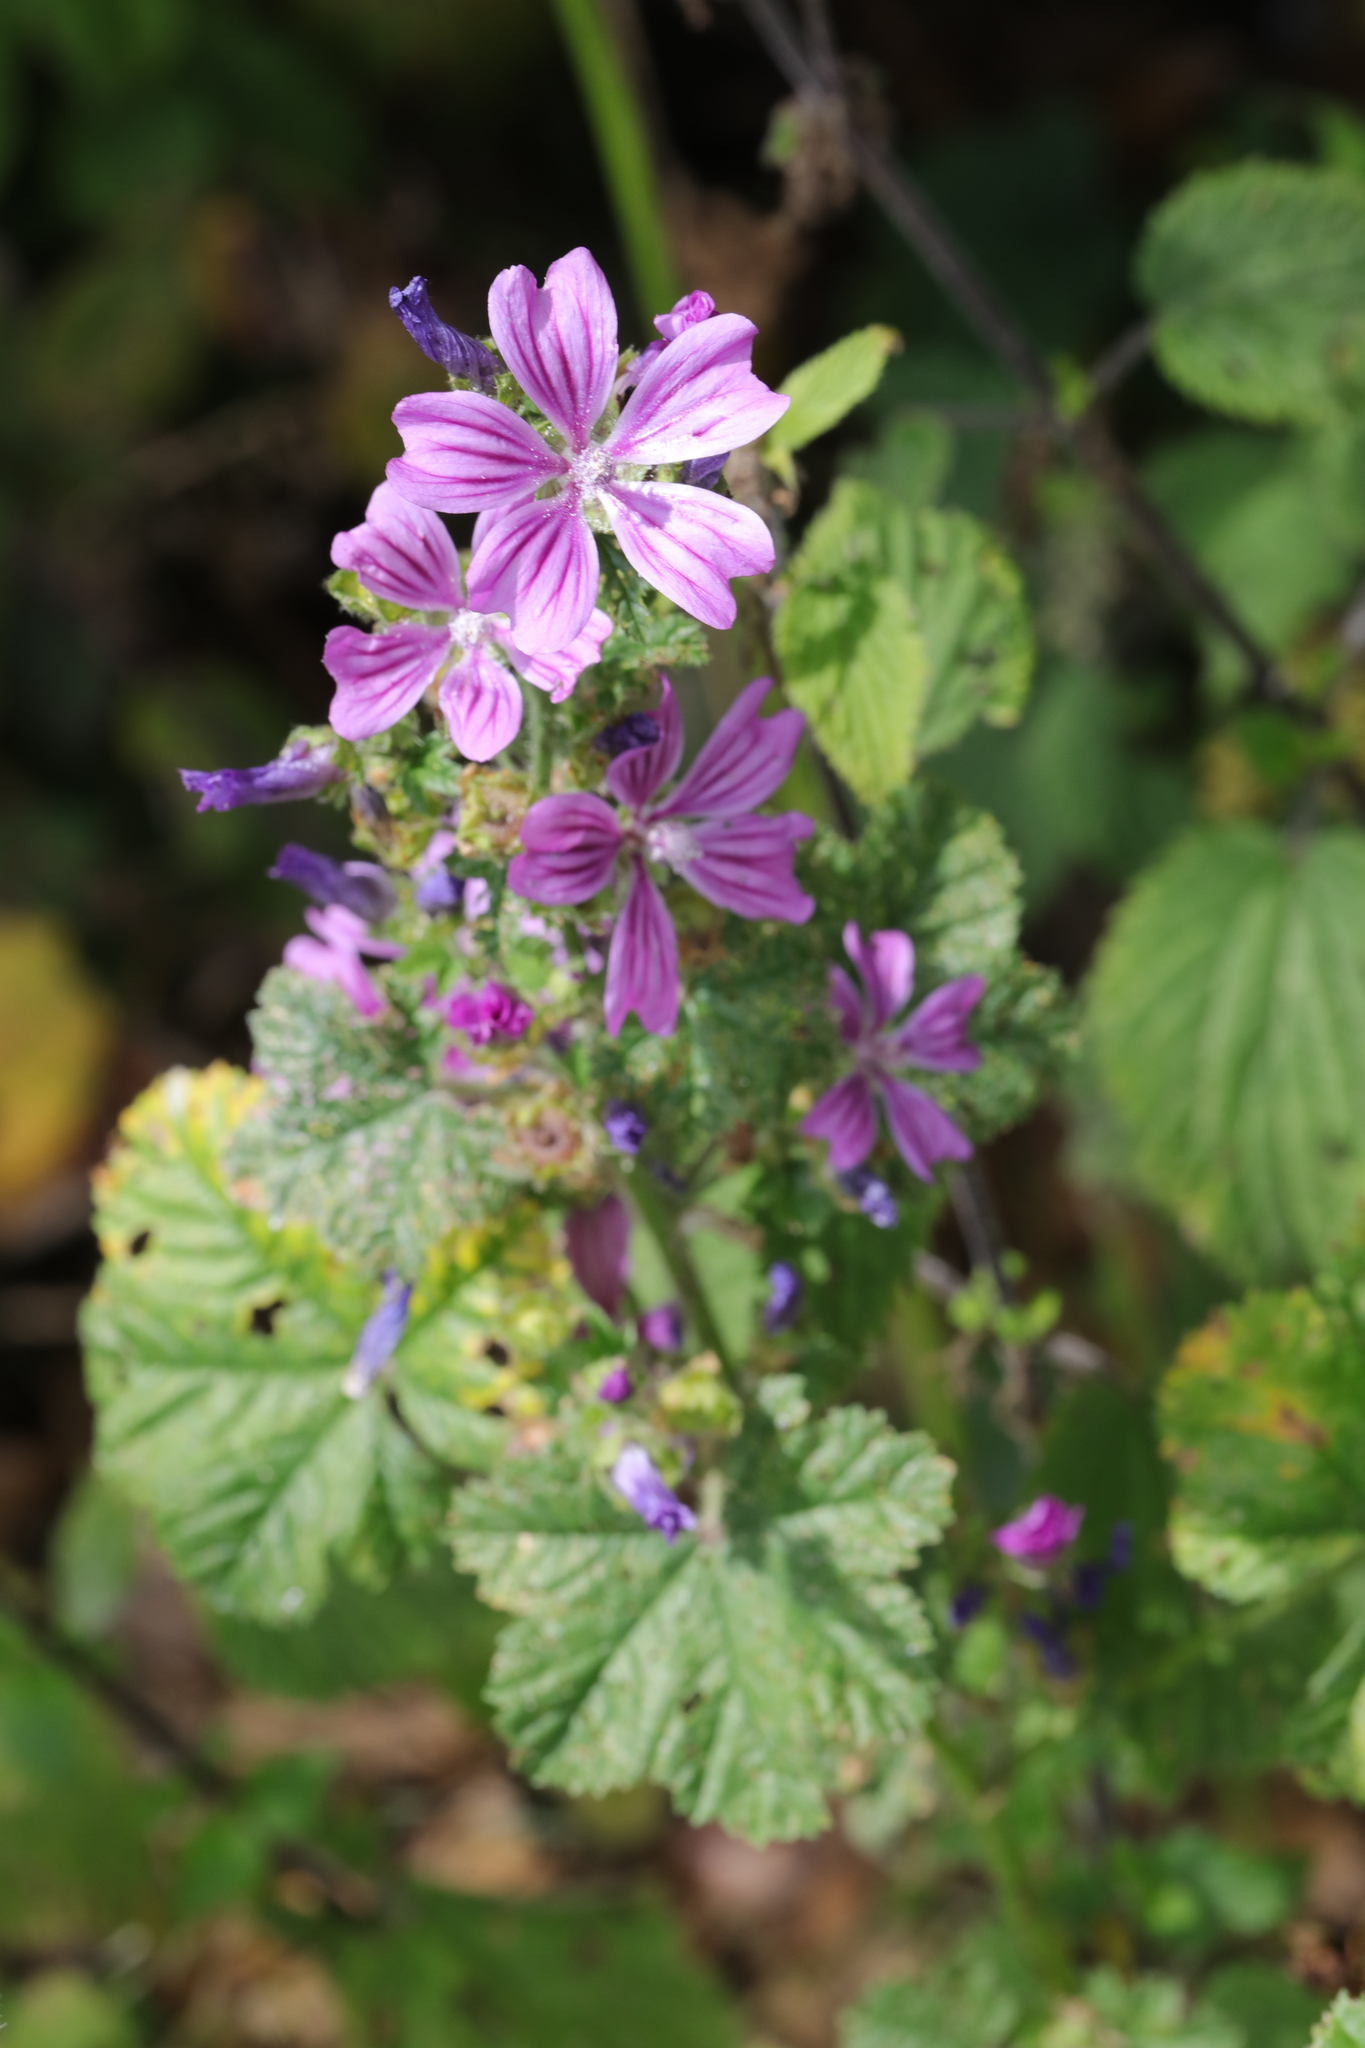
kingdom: Plantae
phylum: Tracheophyta
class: Magnoliopsida
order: Malvales
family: Malvaceae
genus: Malva
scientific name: Malva sylvestris
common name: Common mallow
